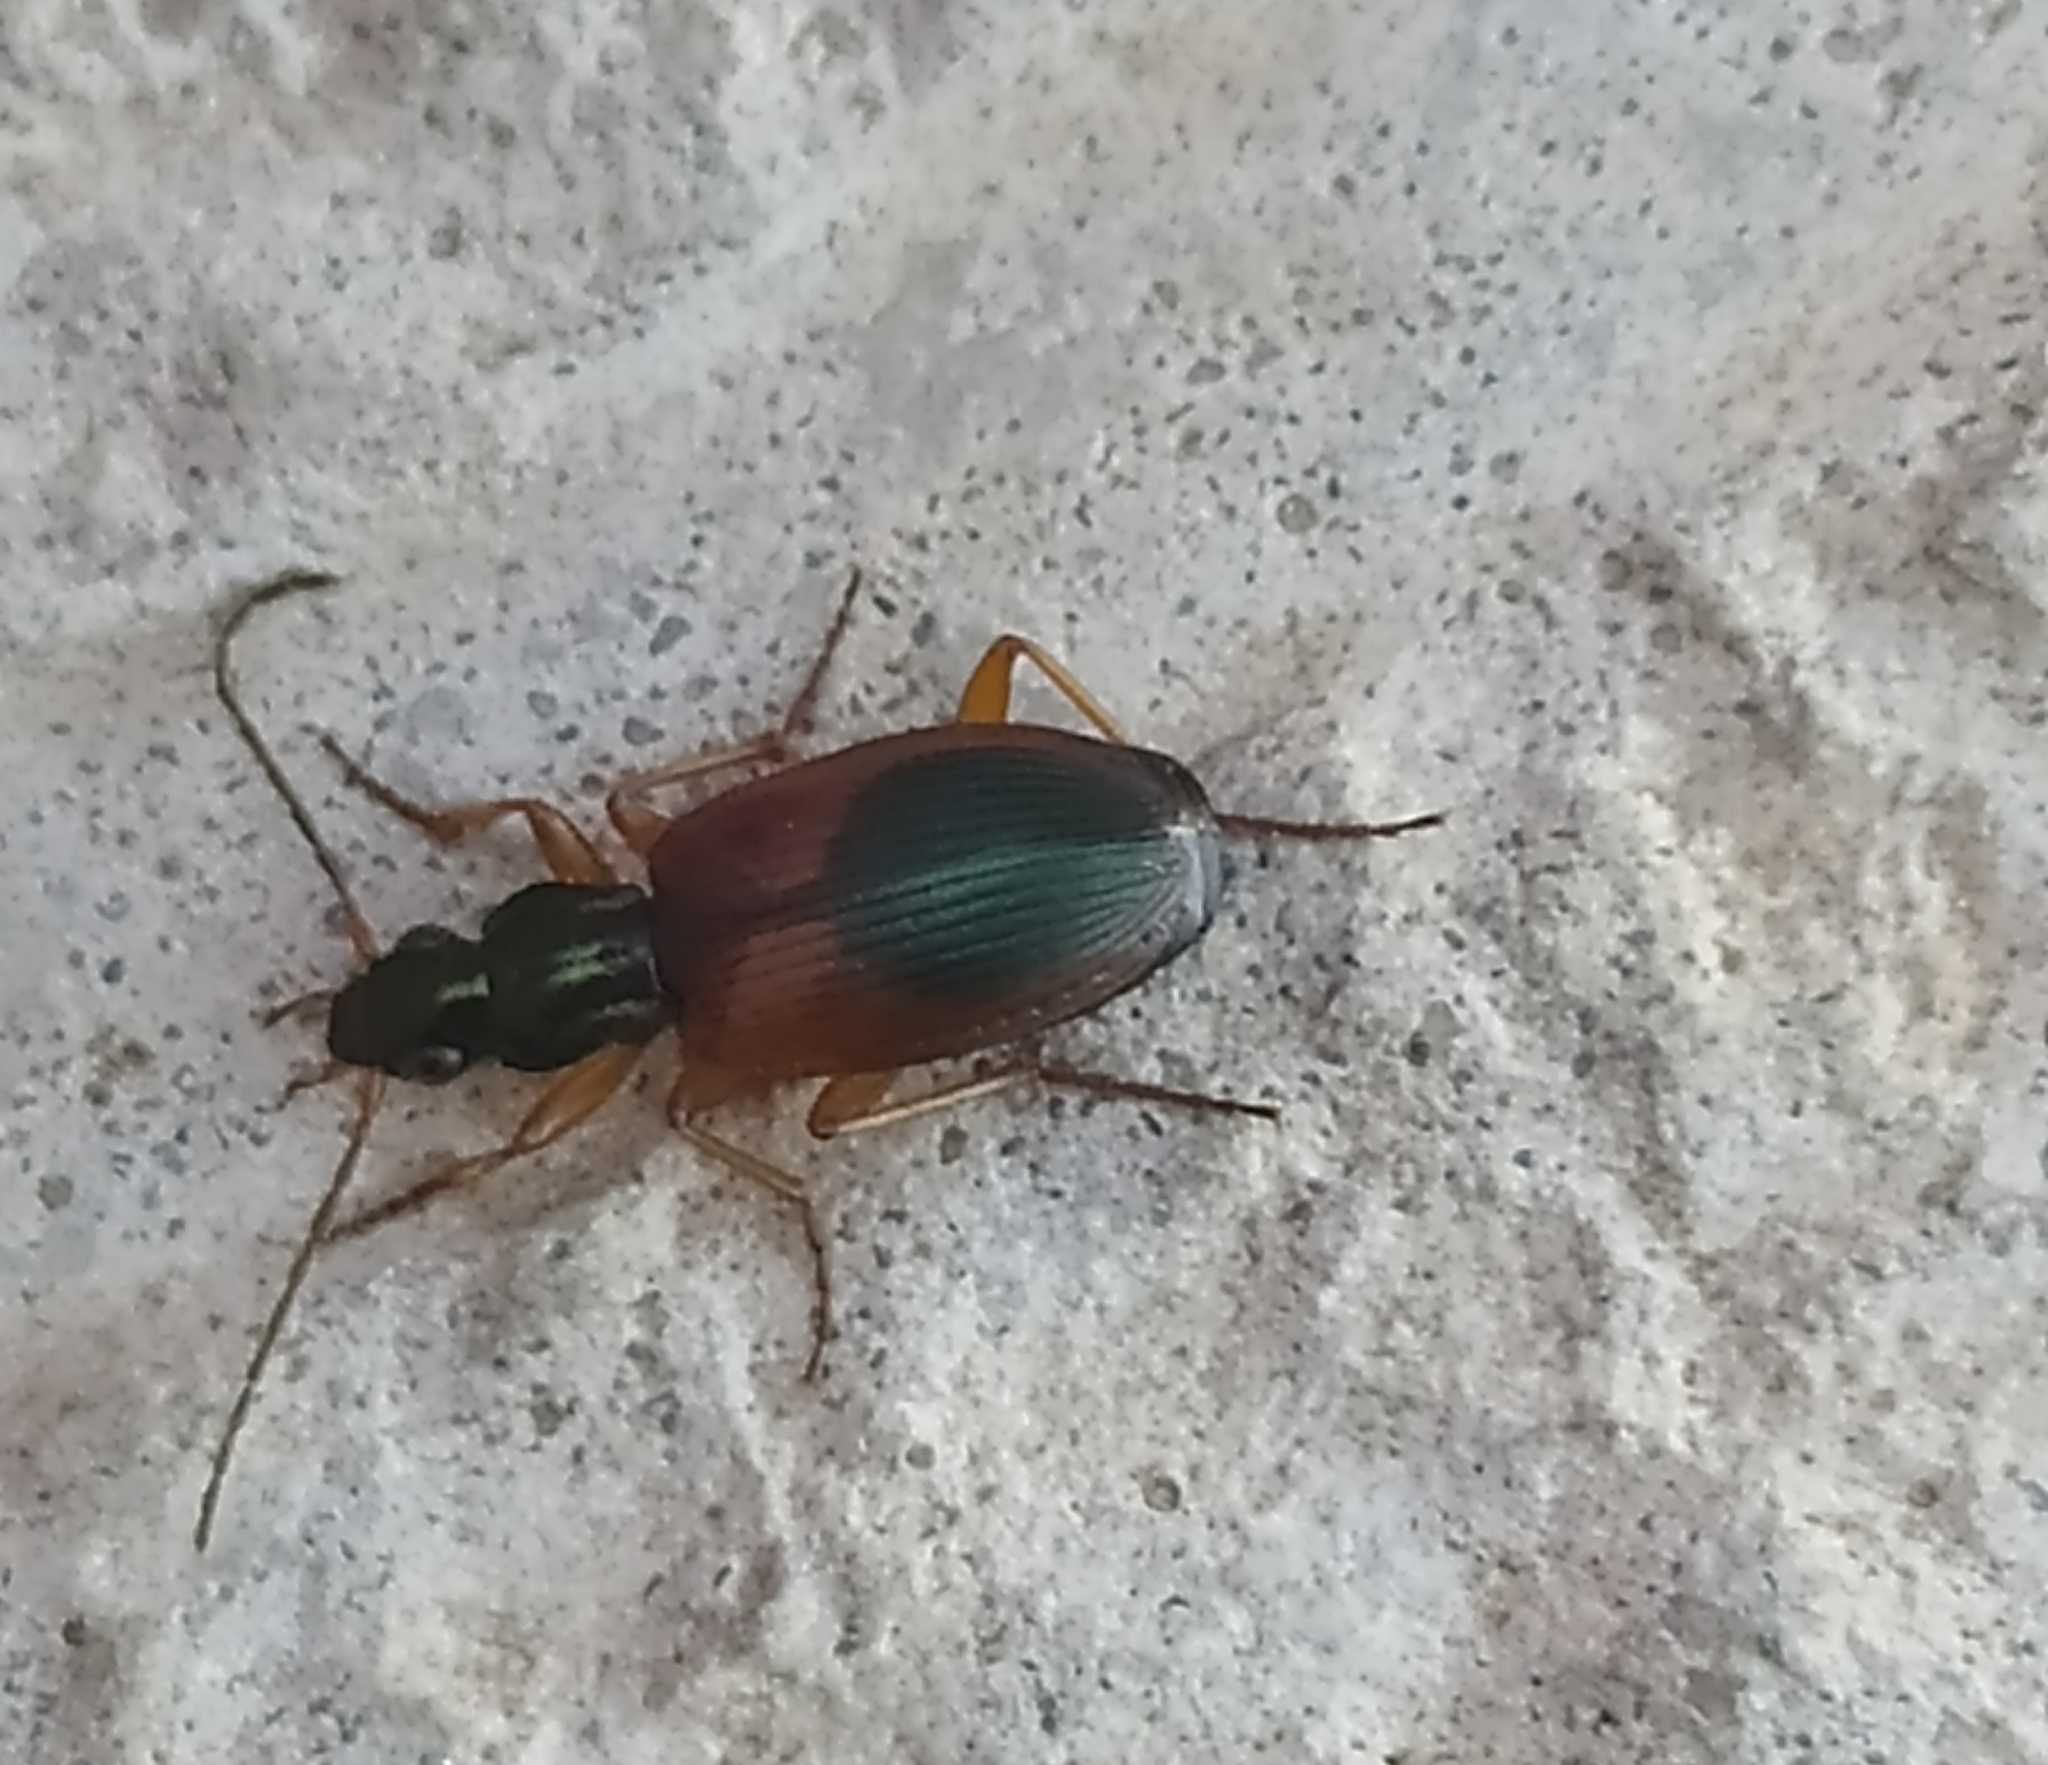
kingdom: Animalia
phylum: Arthropoda
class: Insecta
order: Coleoptera
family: Carabidae
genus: Anchomenus
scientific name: Anchomenus dorsalis
